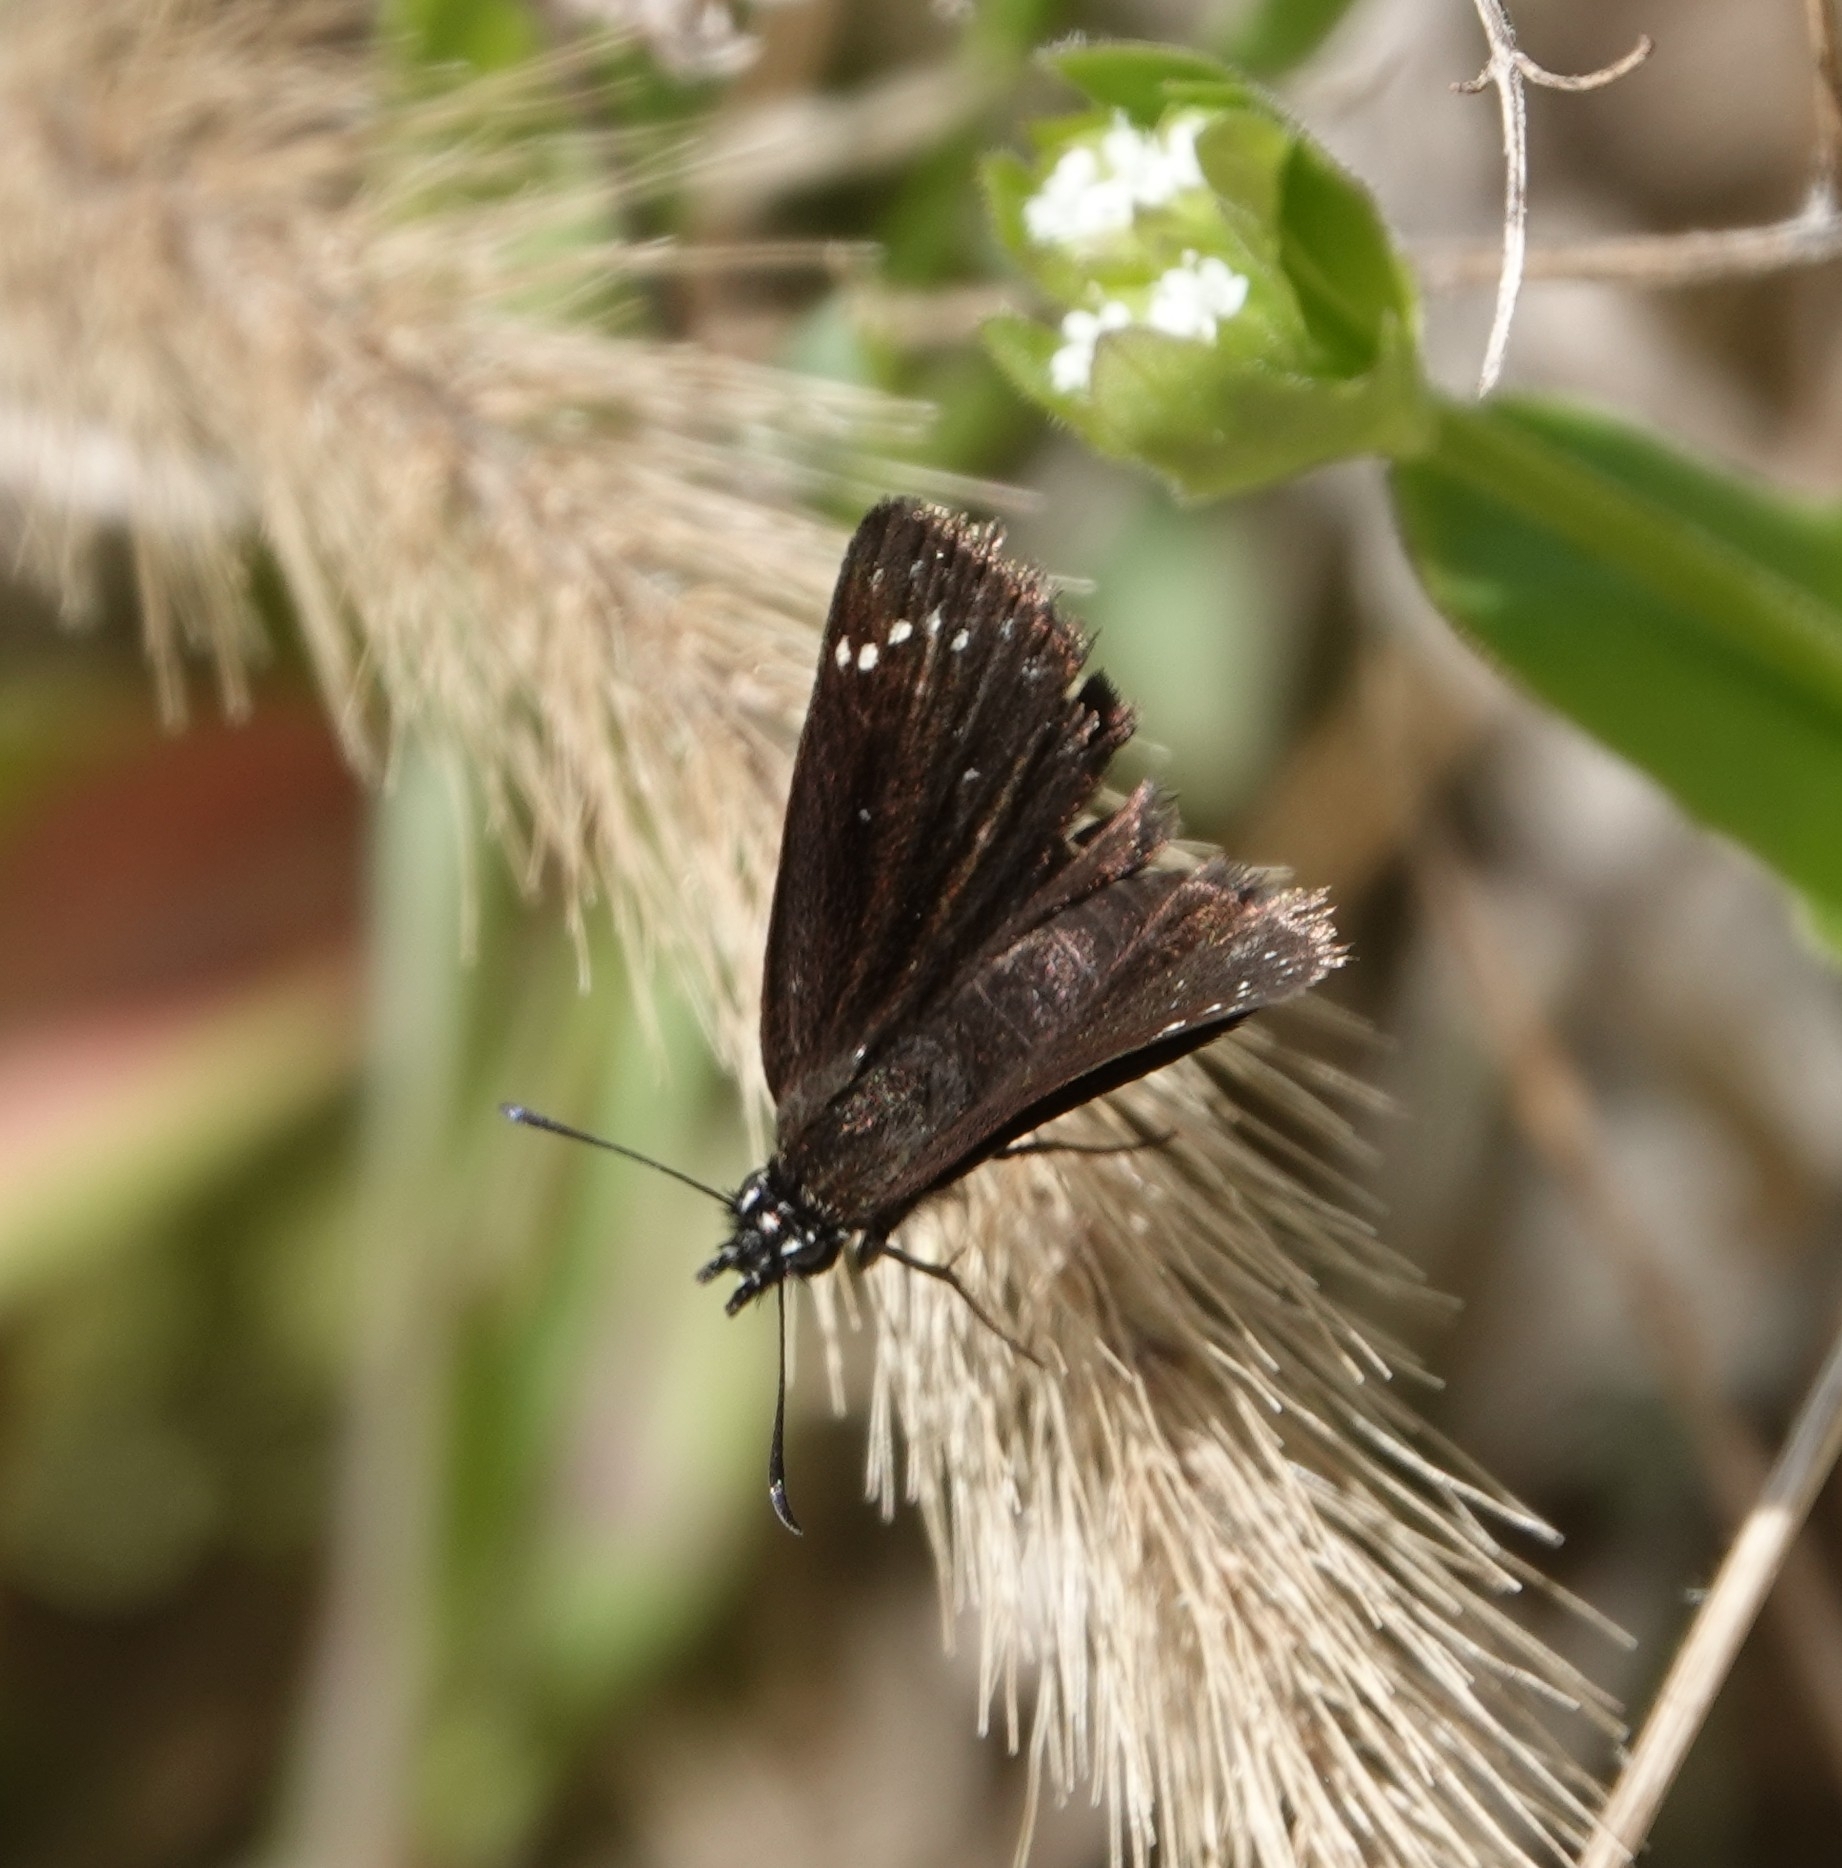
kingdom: Animalia
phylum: Arthropoda
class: Insecta
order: Lepidoptera
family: Hesperiidae
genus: Pholisora
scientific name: Pholisora catullus
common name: Common sootywing
